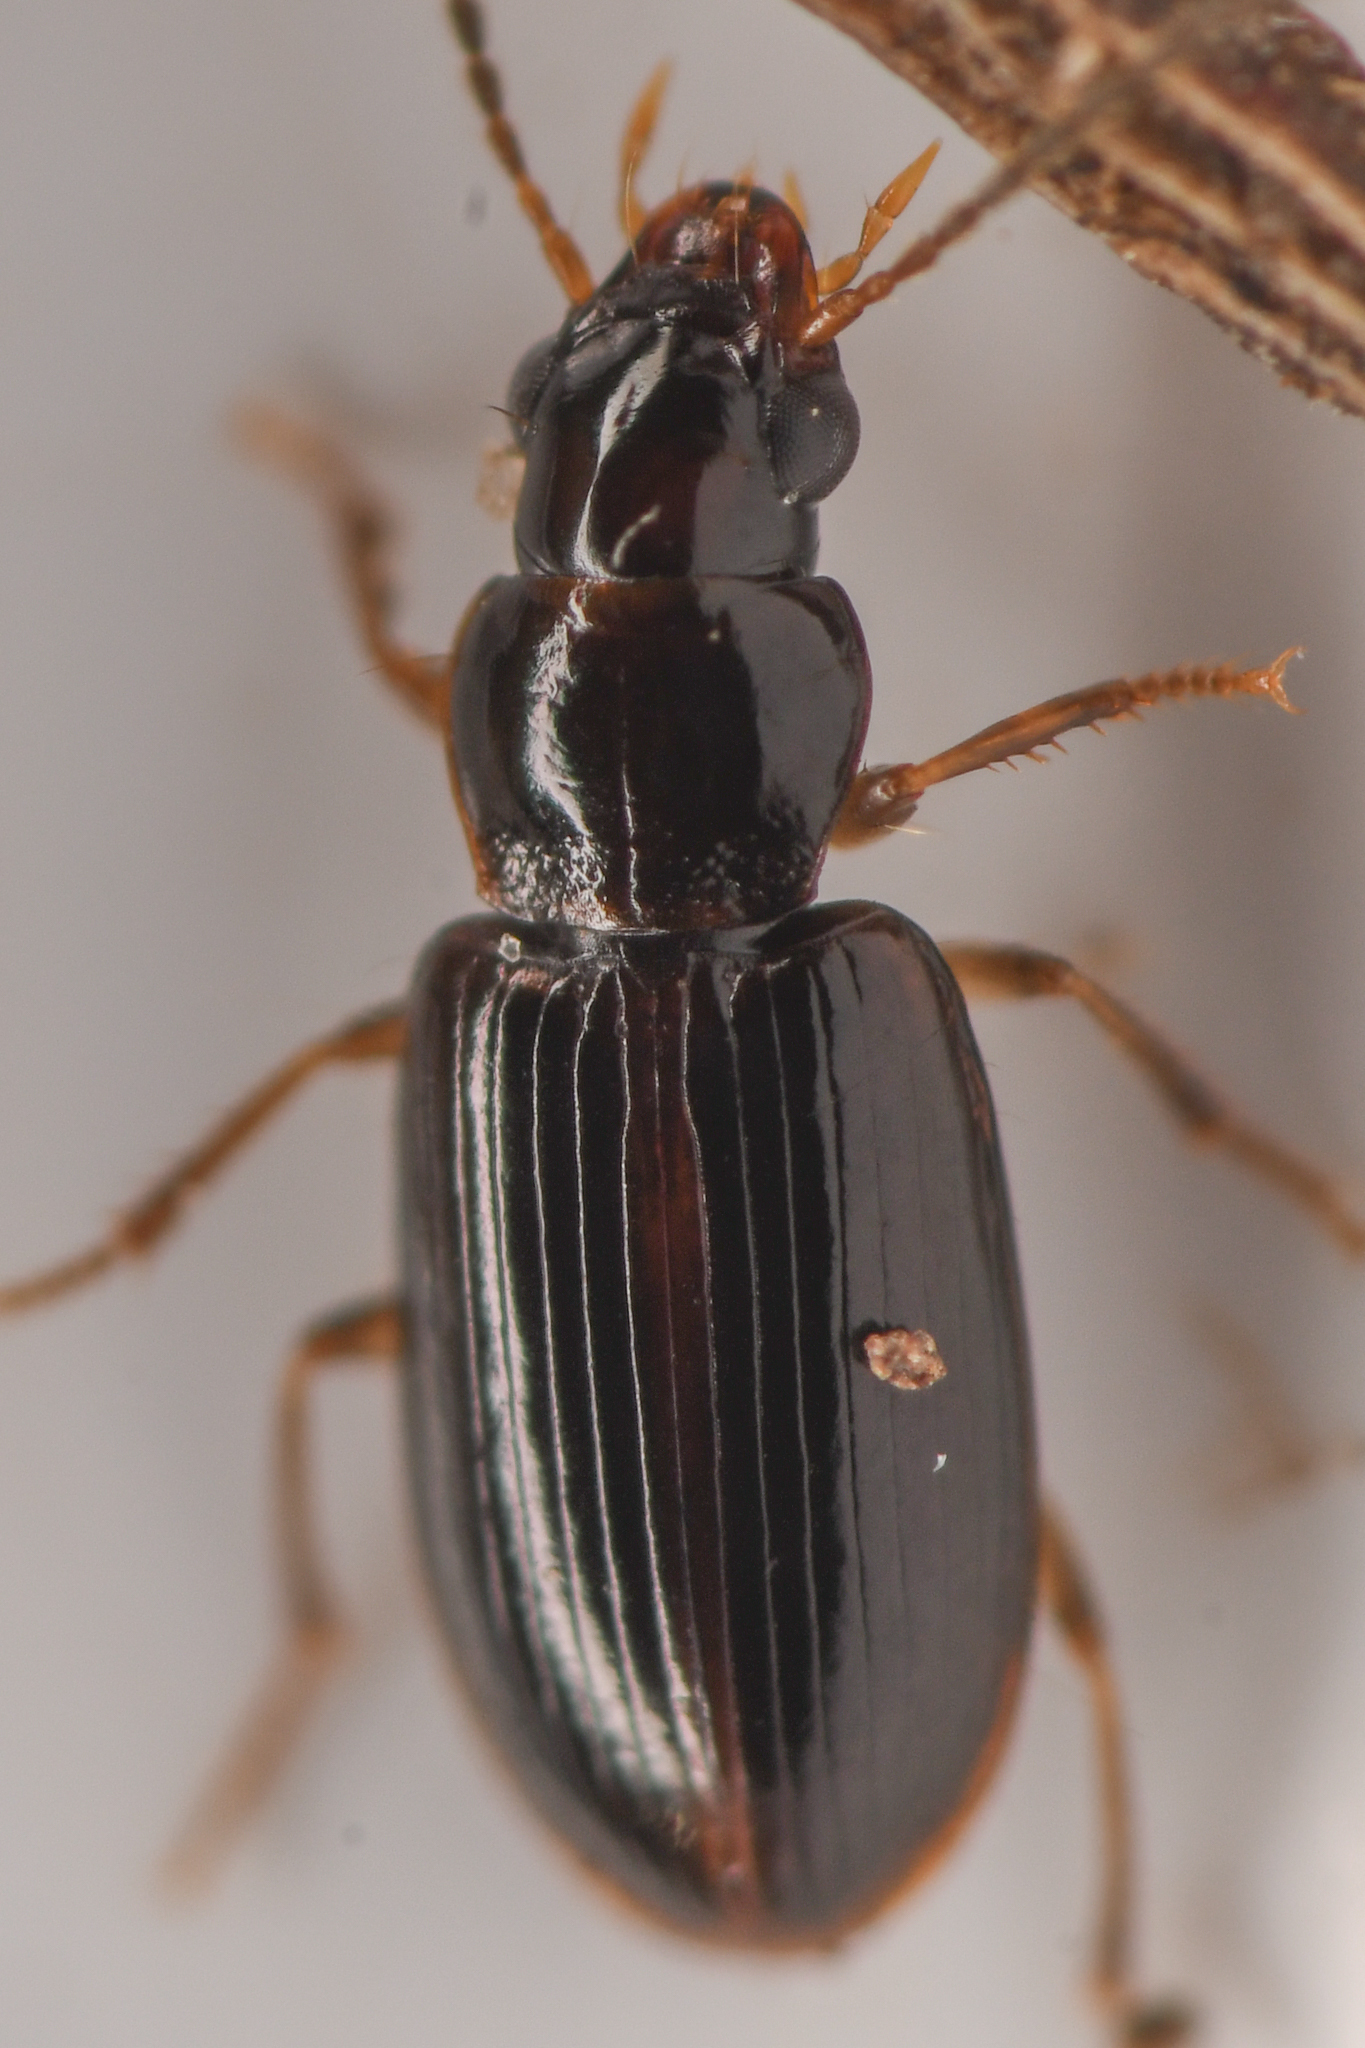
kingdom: Animalia
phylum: Arthropoda
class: Insecta
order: Coleoptera
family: Carabidae
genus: Bradycellus
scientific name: Bradycellus californicus
